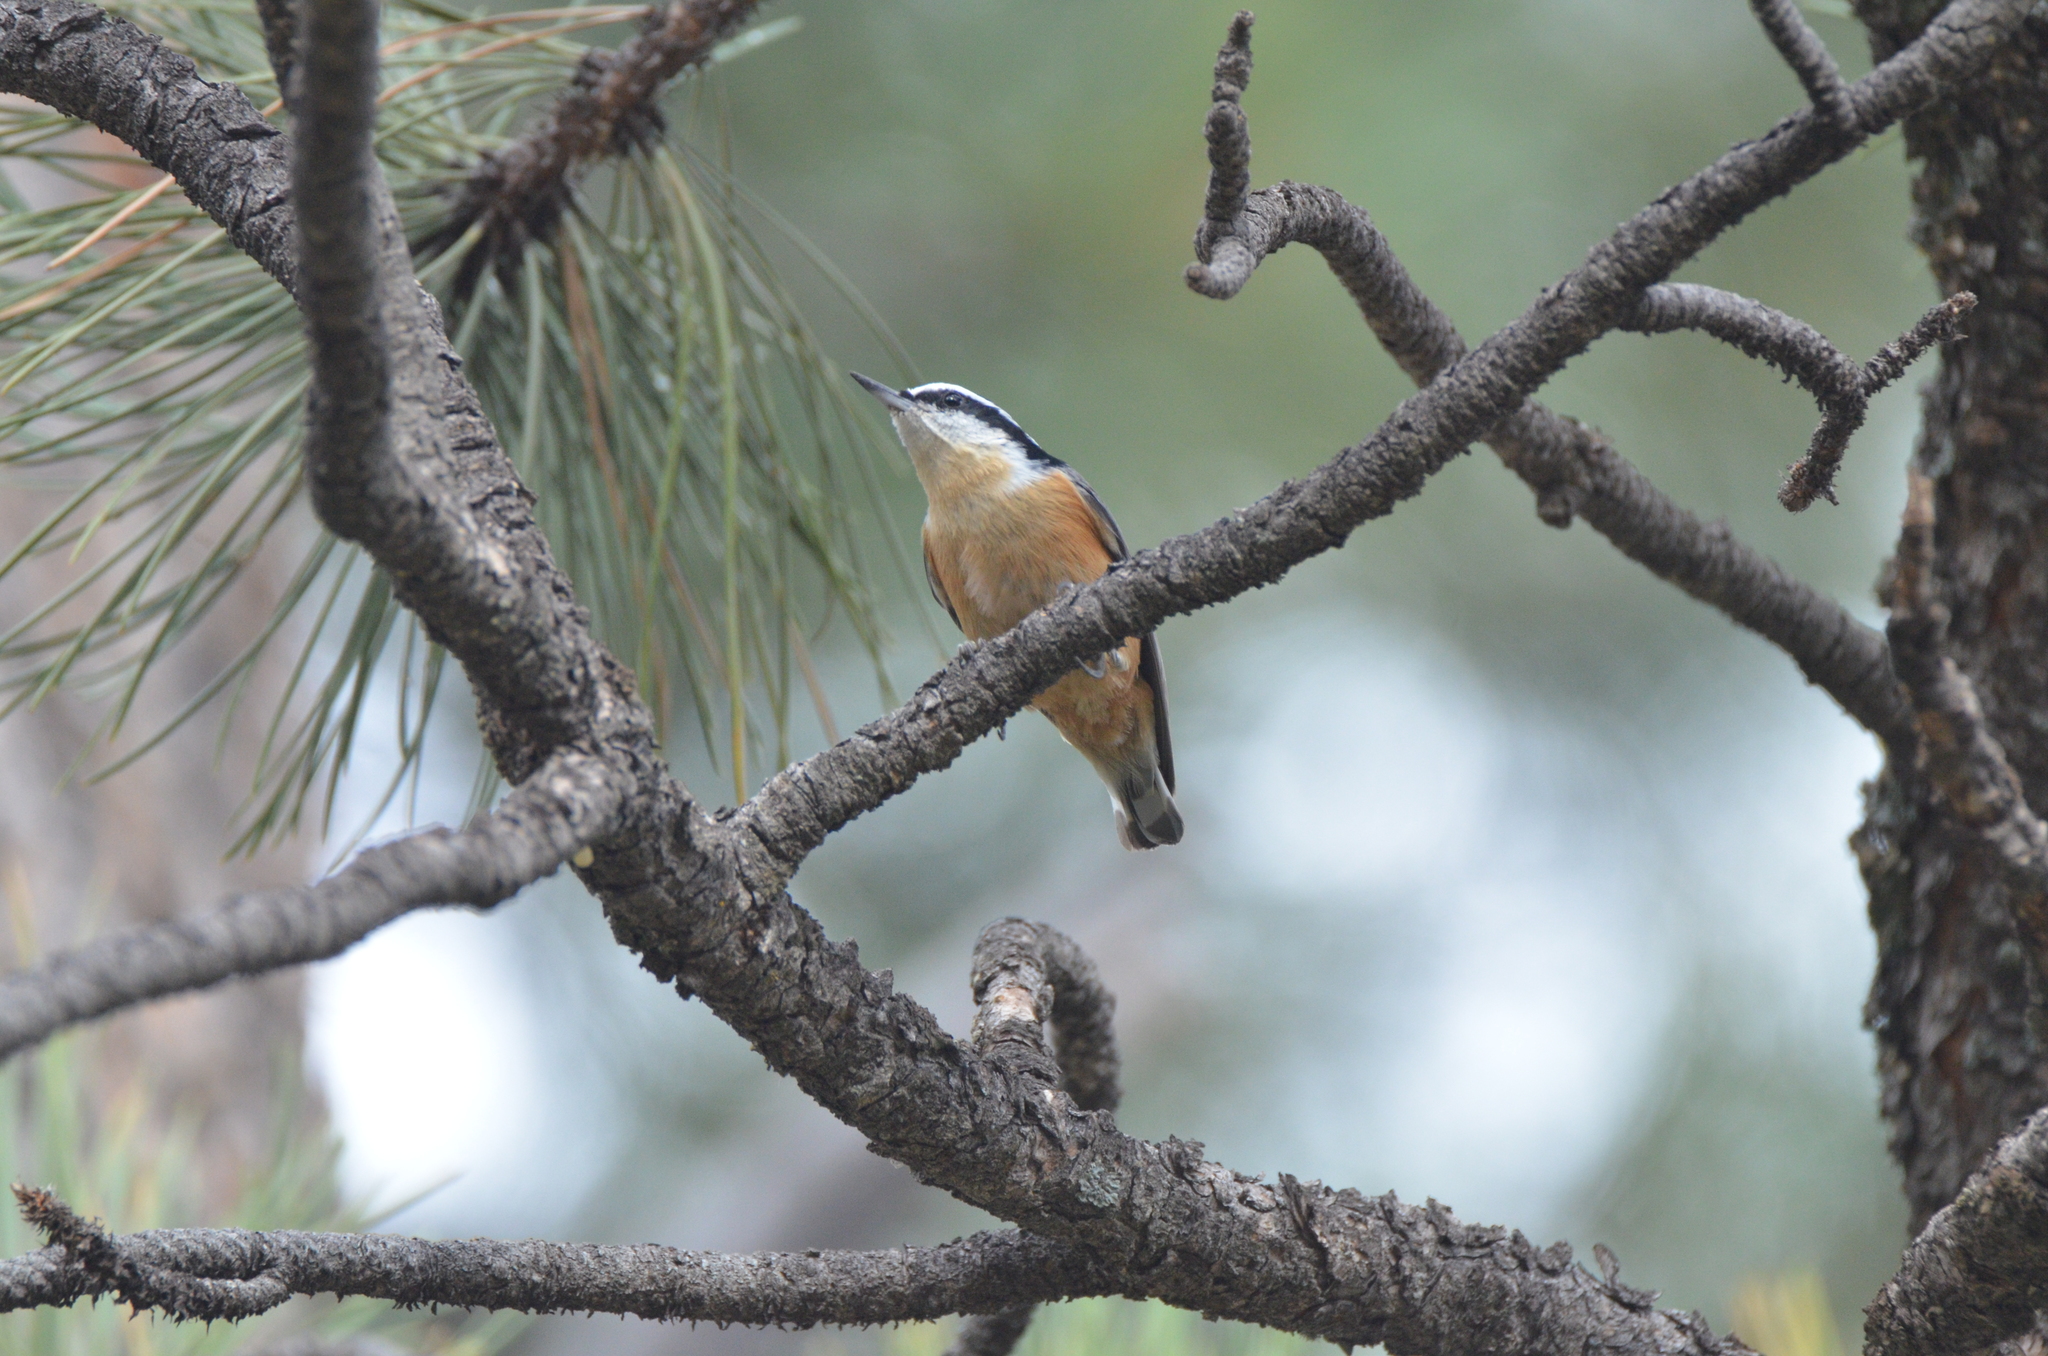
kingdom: Animalia
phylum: Chordata
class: Aves
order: Passeriformes
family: Sittidae
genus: Sitta
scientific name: Sitta canadensis
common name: Red-breasted nuthatch
